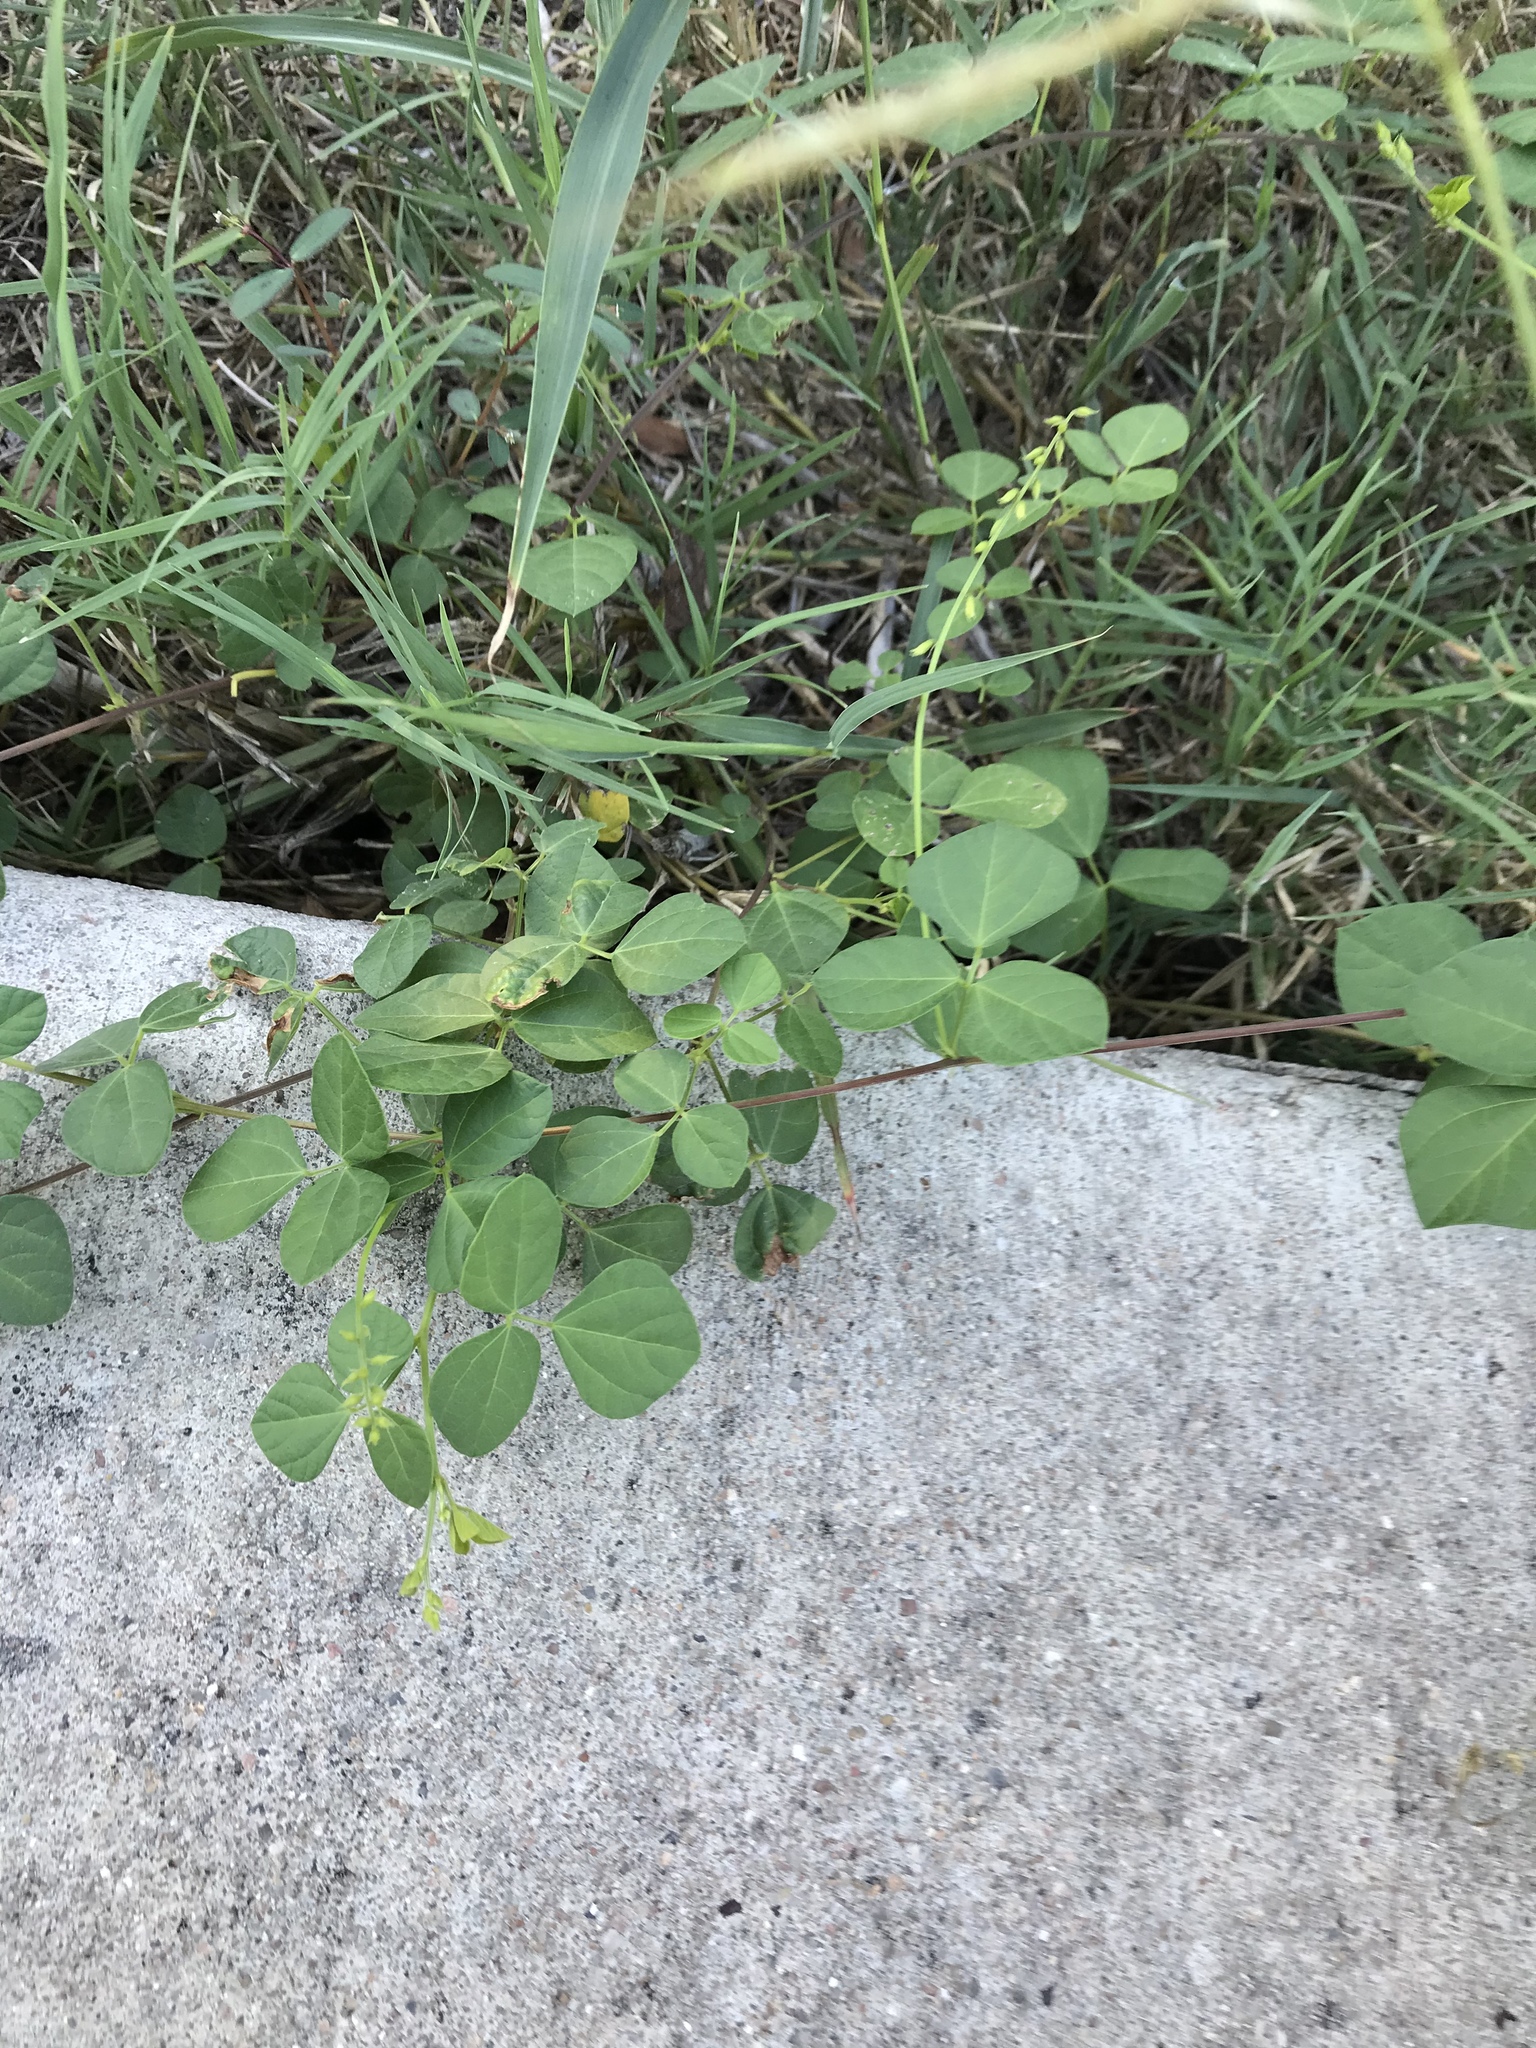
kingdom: Plantae
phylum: Tracheophyta
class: Magnoliopsida
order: Fabales
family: Fabaceae
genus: Rhynchosia
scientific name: Rhynchosia minima
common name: Least snoutbean
